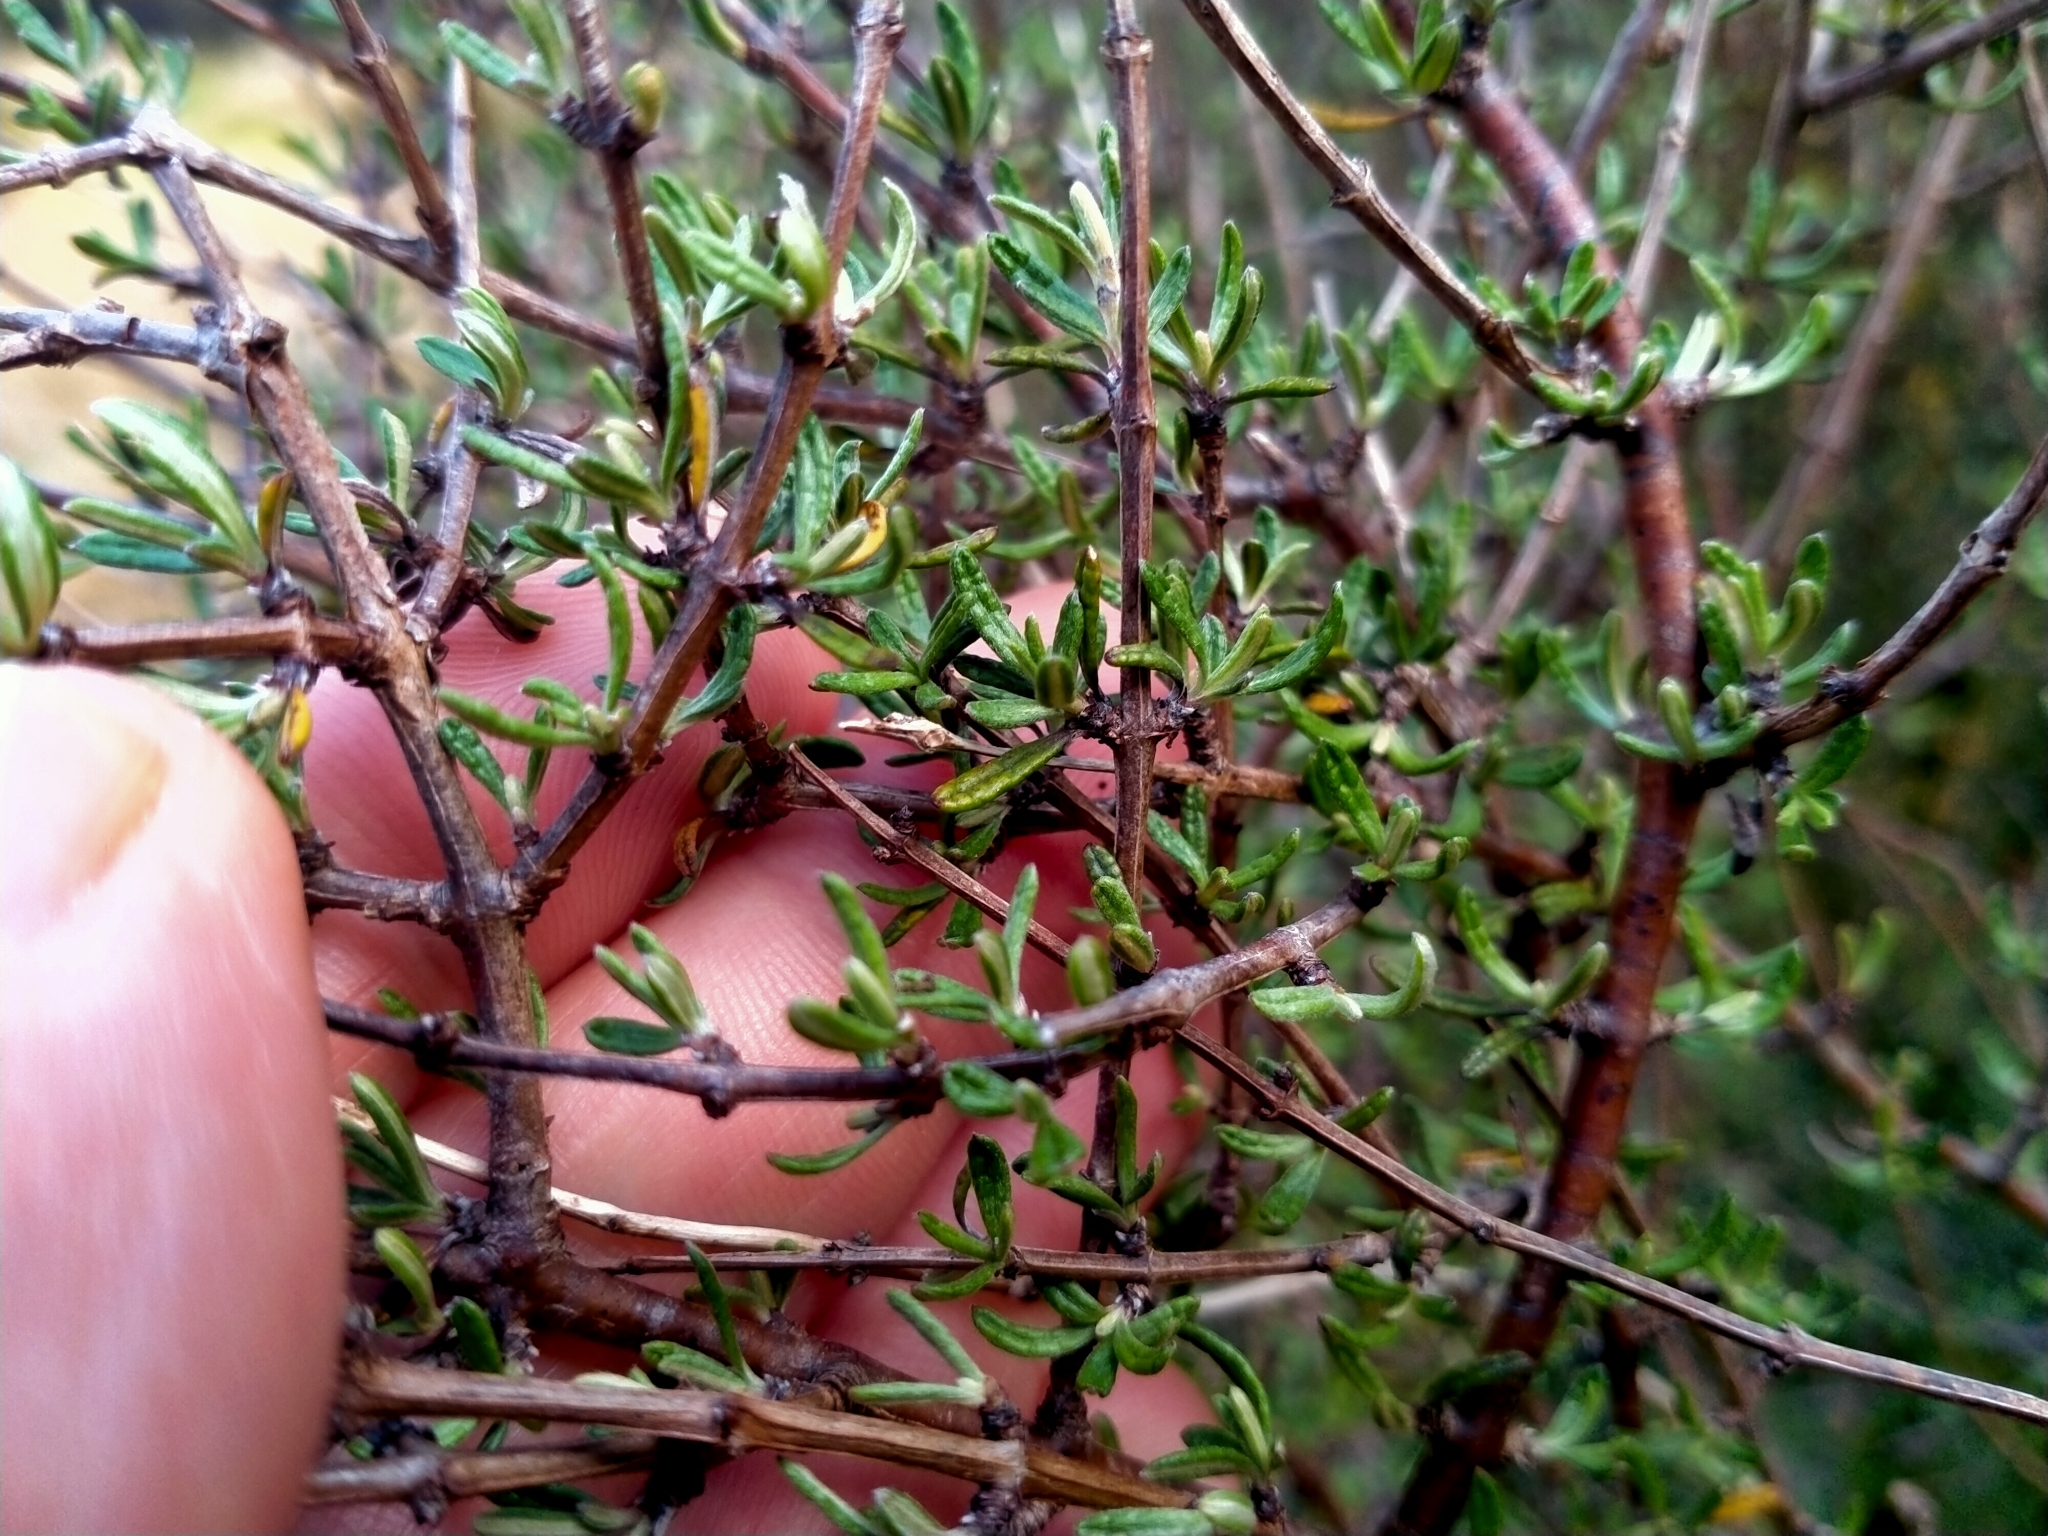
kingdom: Plantae
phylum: Tracheophyta
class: Magnoliopsida
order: Asterales
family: Asteraceae
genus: Olearia
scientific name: Olearia bullata
